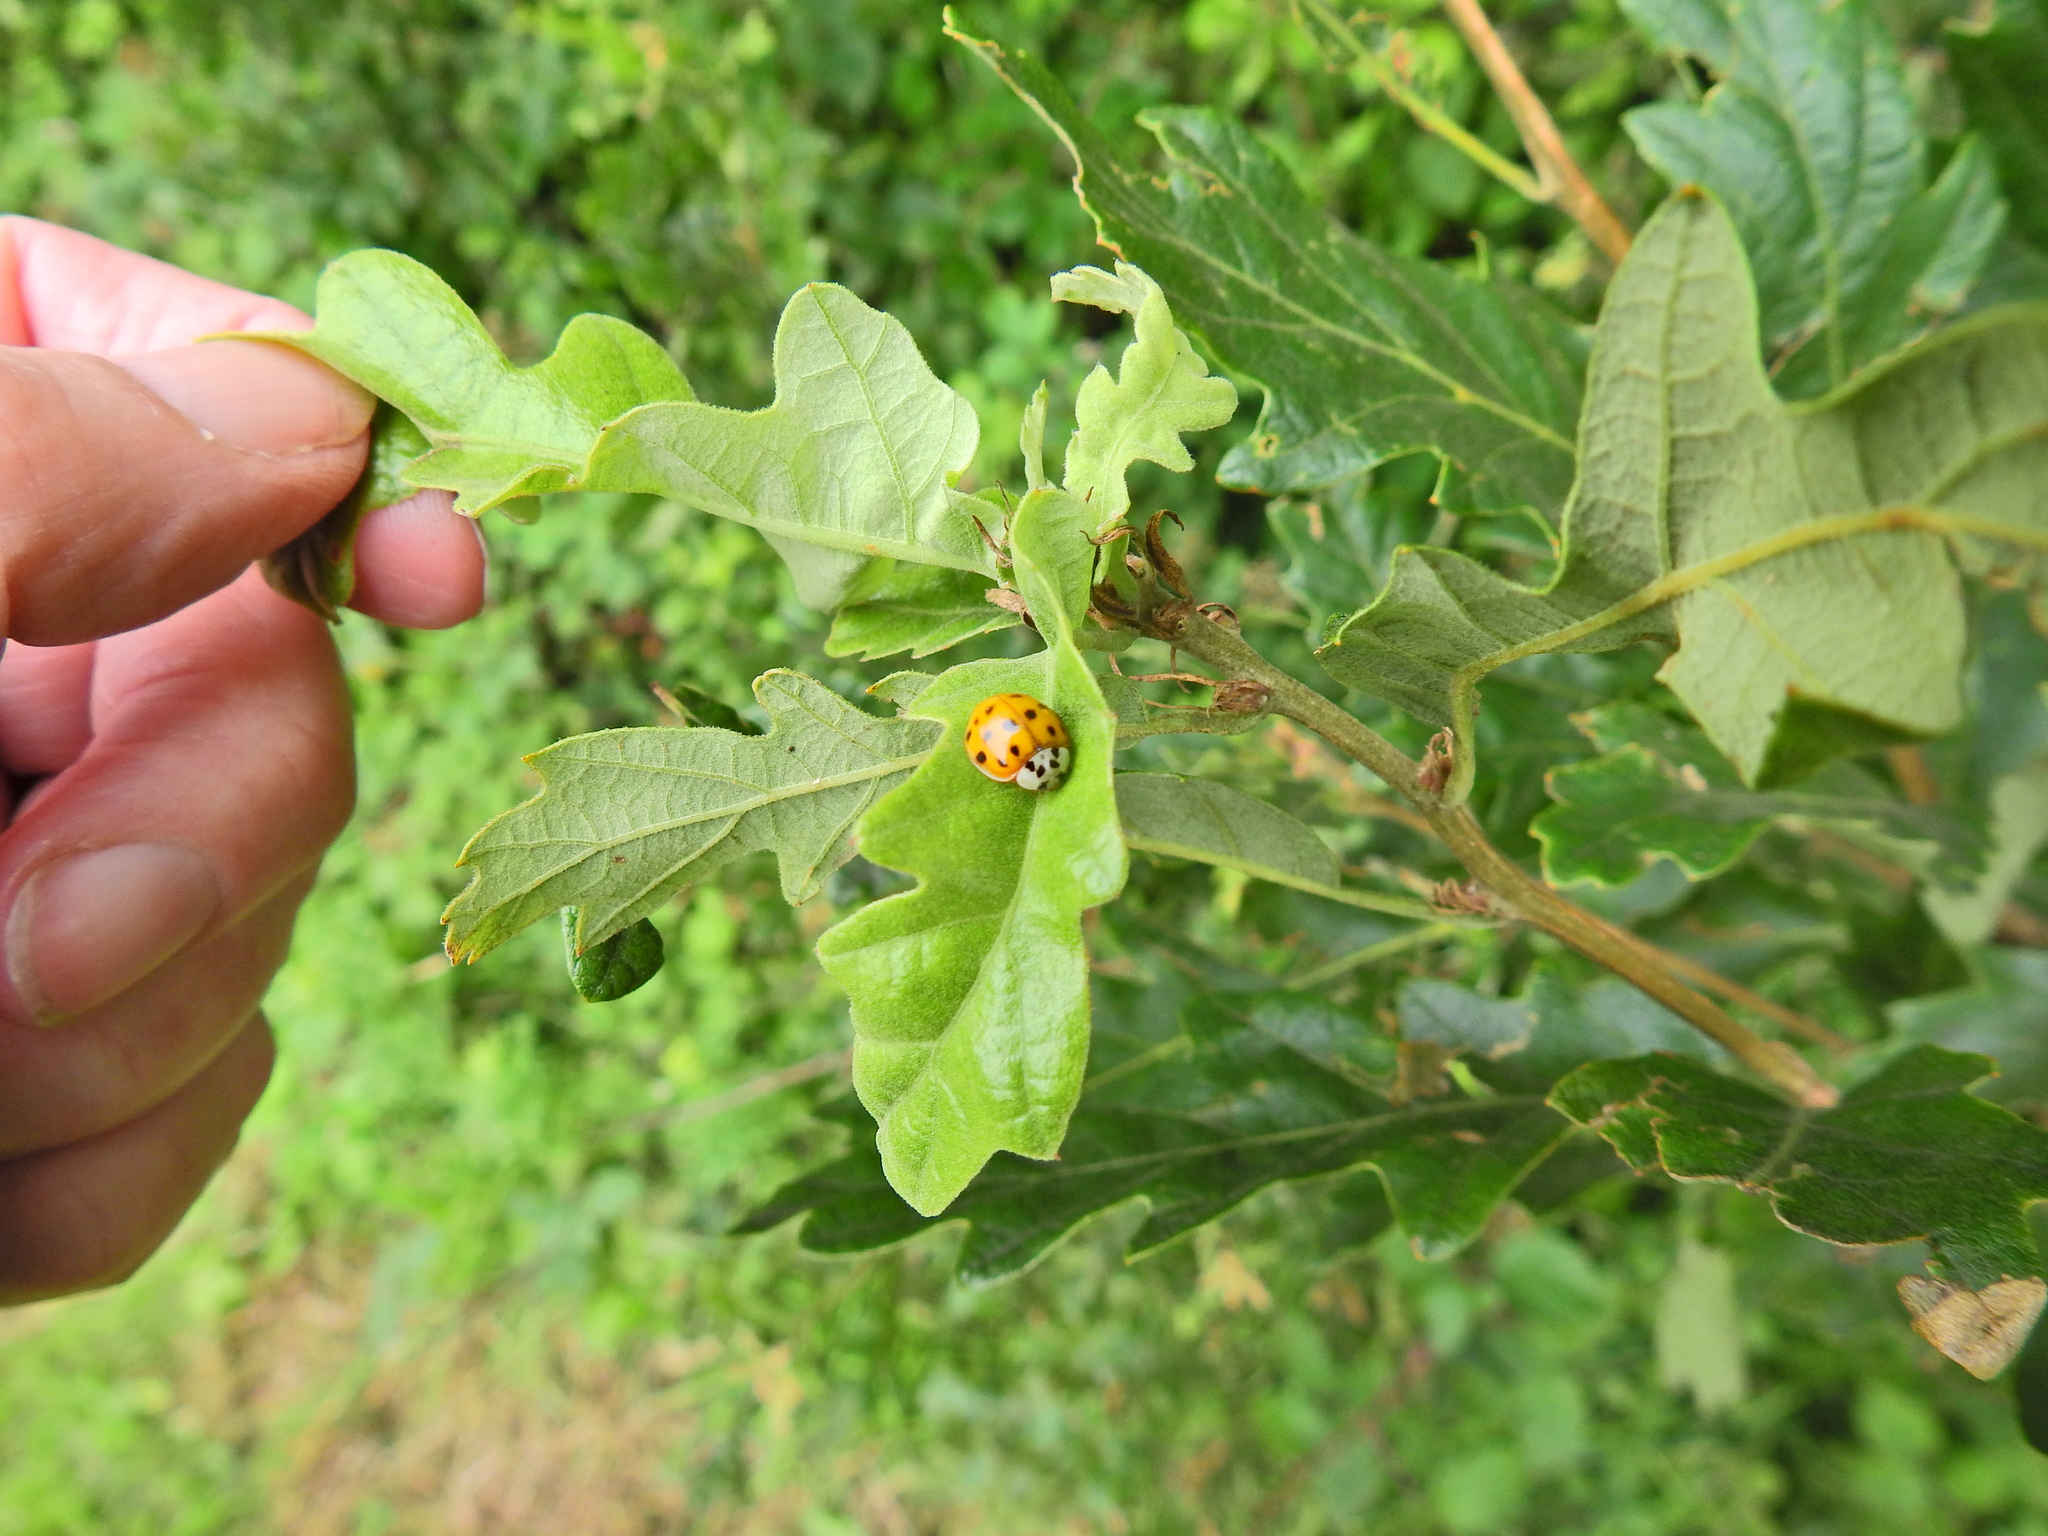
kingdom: Animalia
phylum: Arthropoda
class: Insecta
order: Coleoptera
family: Coccinellidae
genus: Harmonia
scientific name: Harmonia axyridis
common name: Harlequin ladybird
